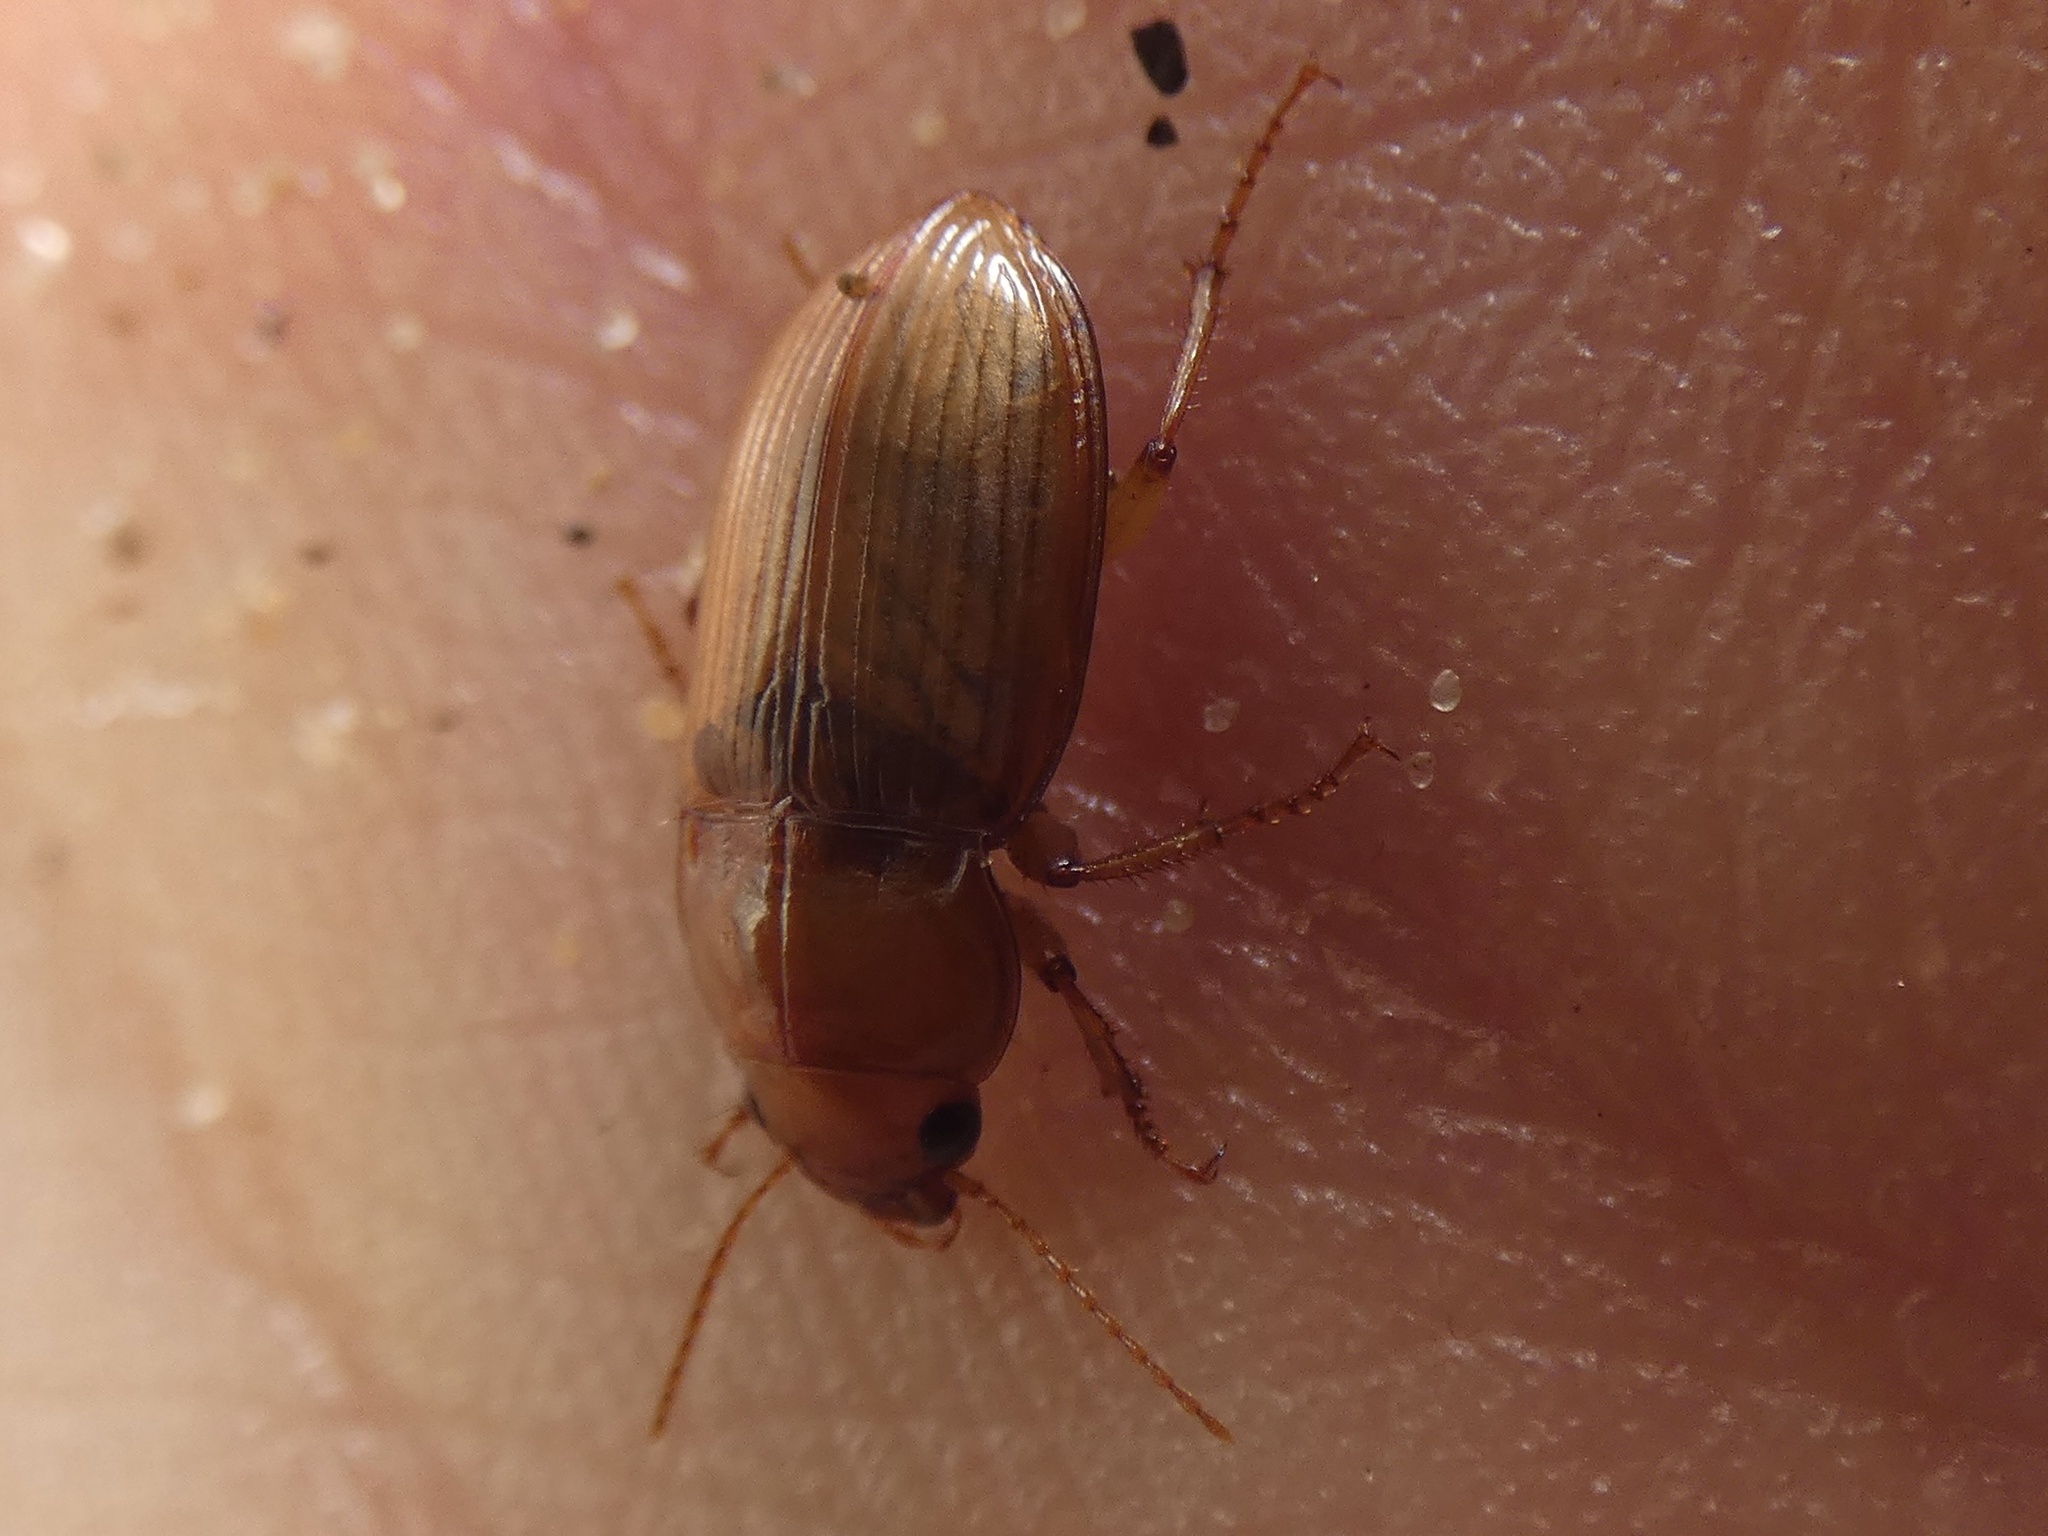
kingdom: Animalia
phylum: Arthropoda
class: Insecta
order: Coleoptera
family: Carabidae
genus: Amara
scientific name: Amara fulva
